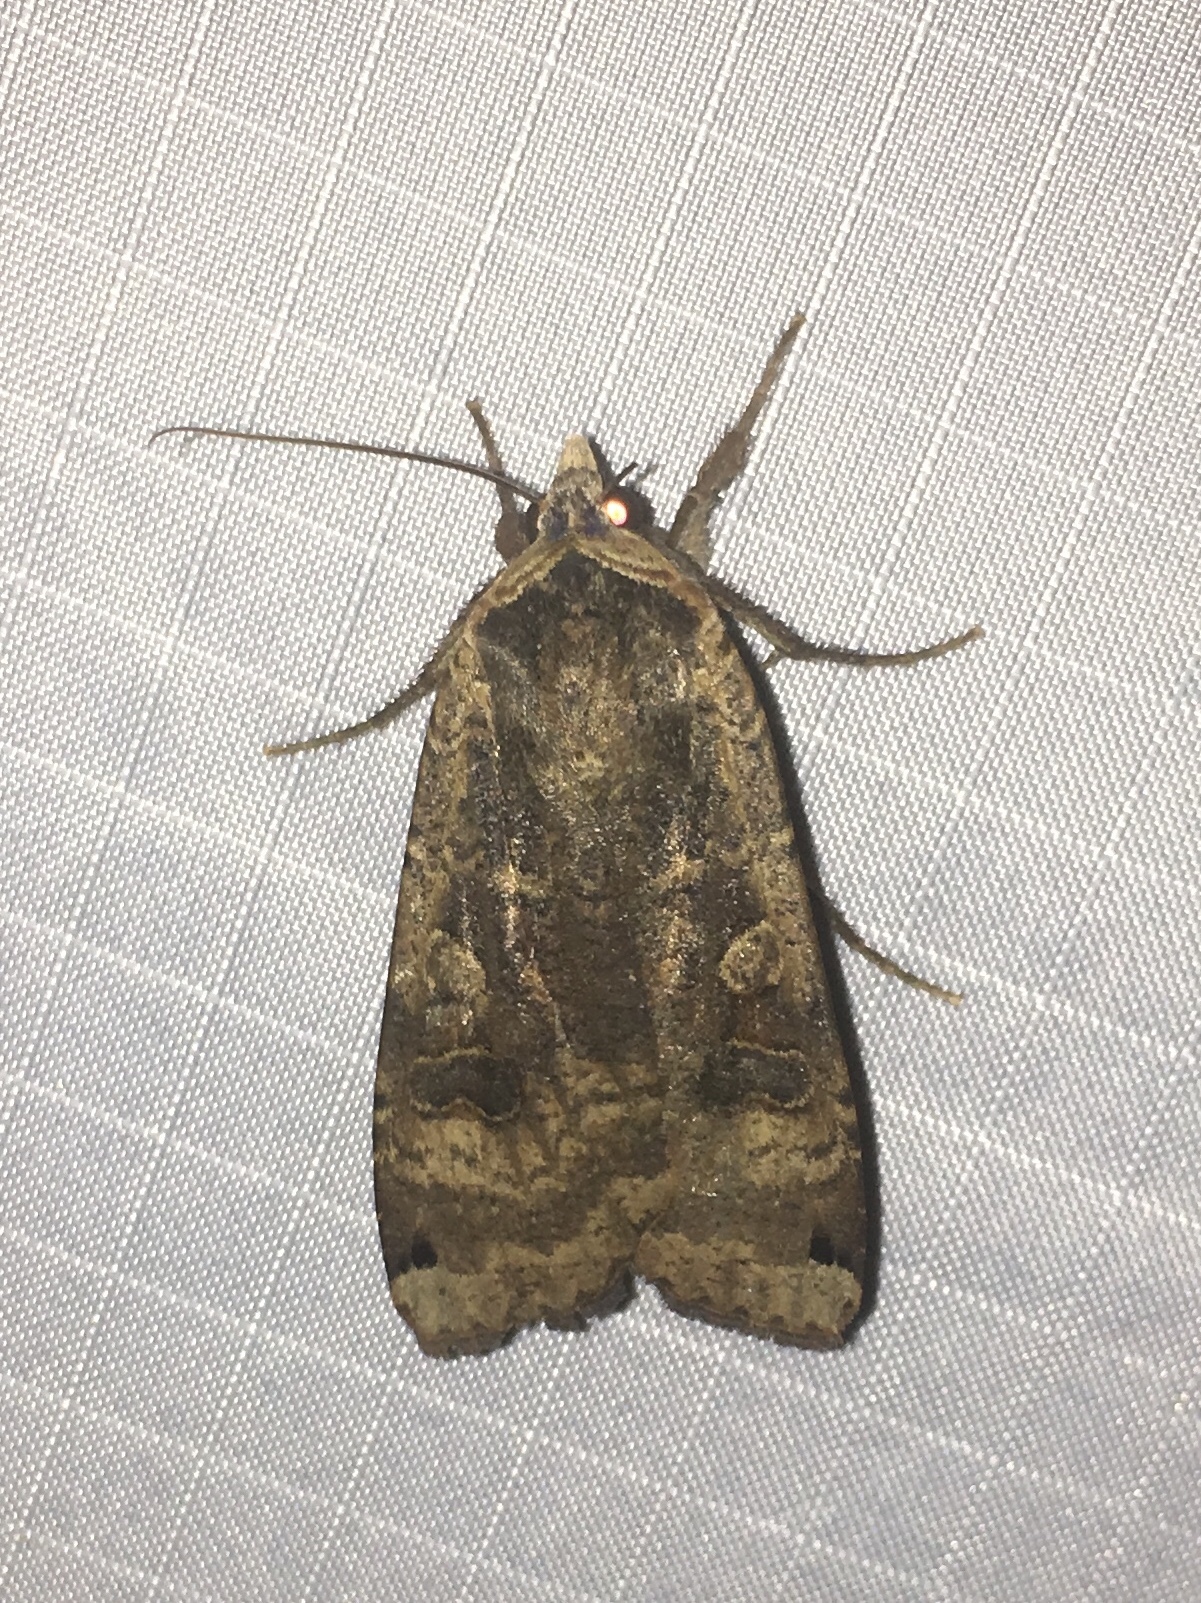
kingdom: Animalia
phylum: Arthropoda
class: Insecta
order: Lepidoptera
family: Noctuidae
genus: Noctua
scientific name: Noctua pronuba
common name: Large yellow underwing
